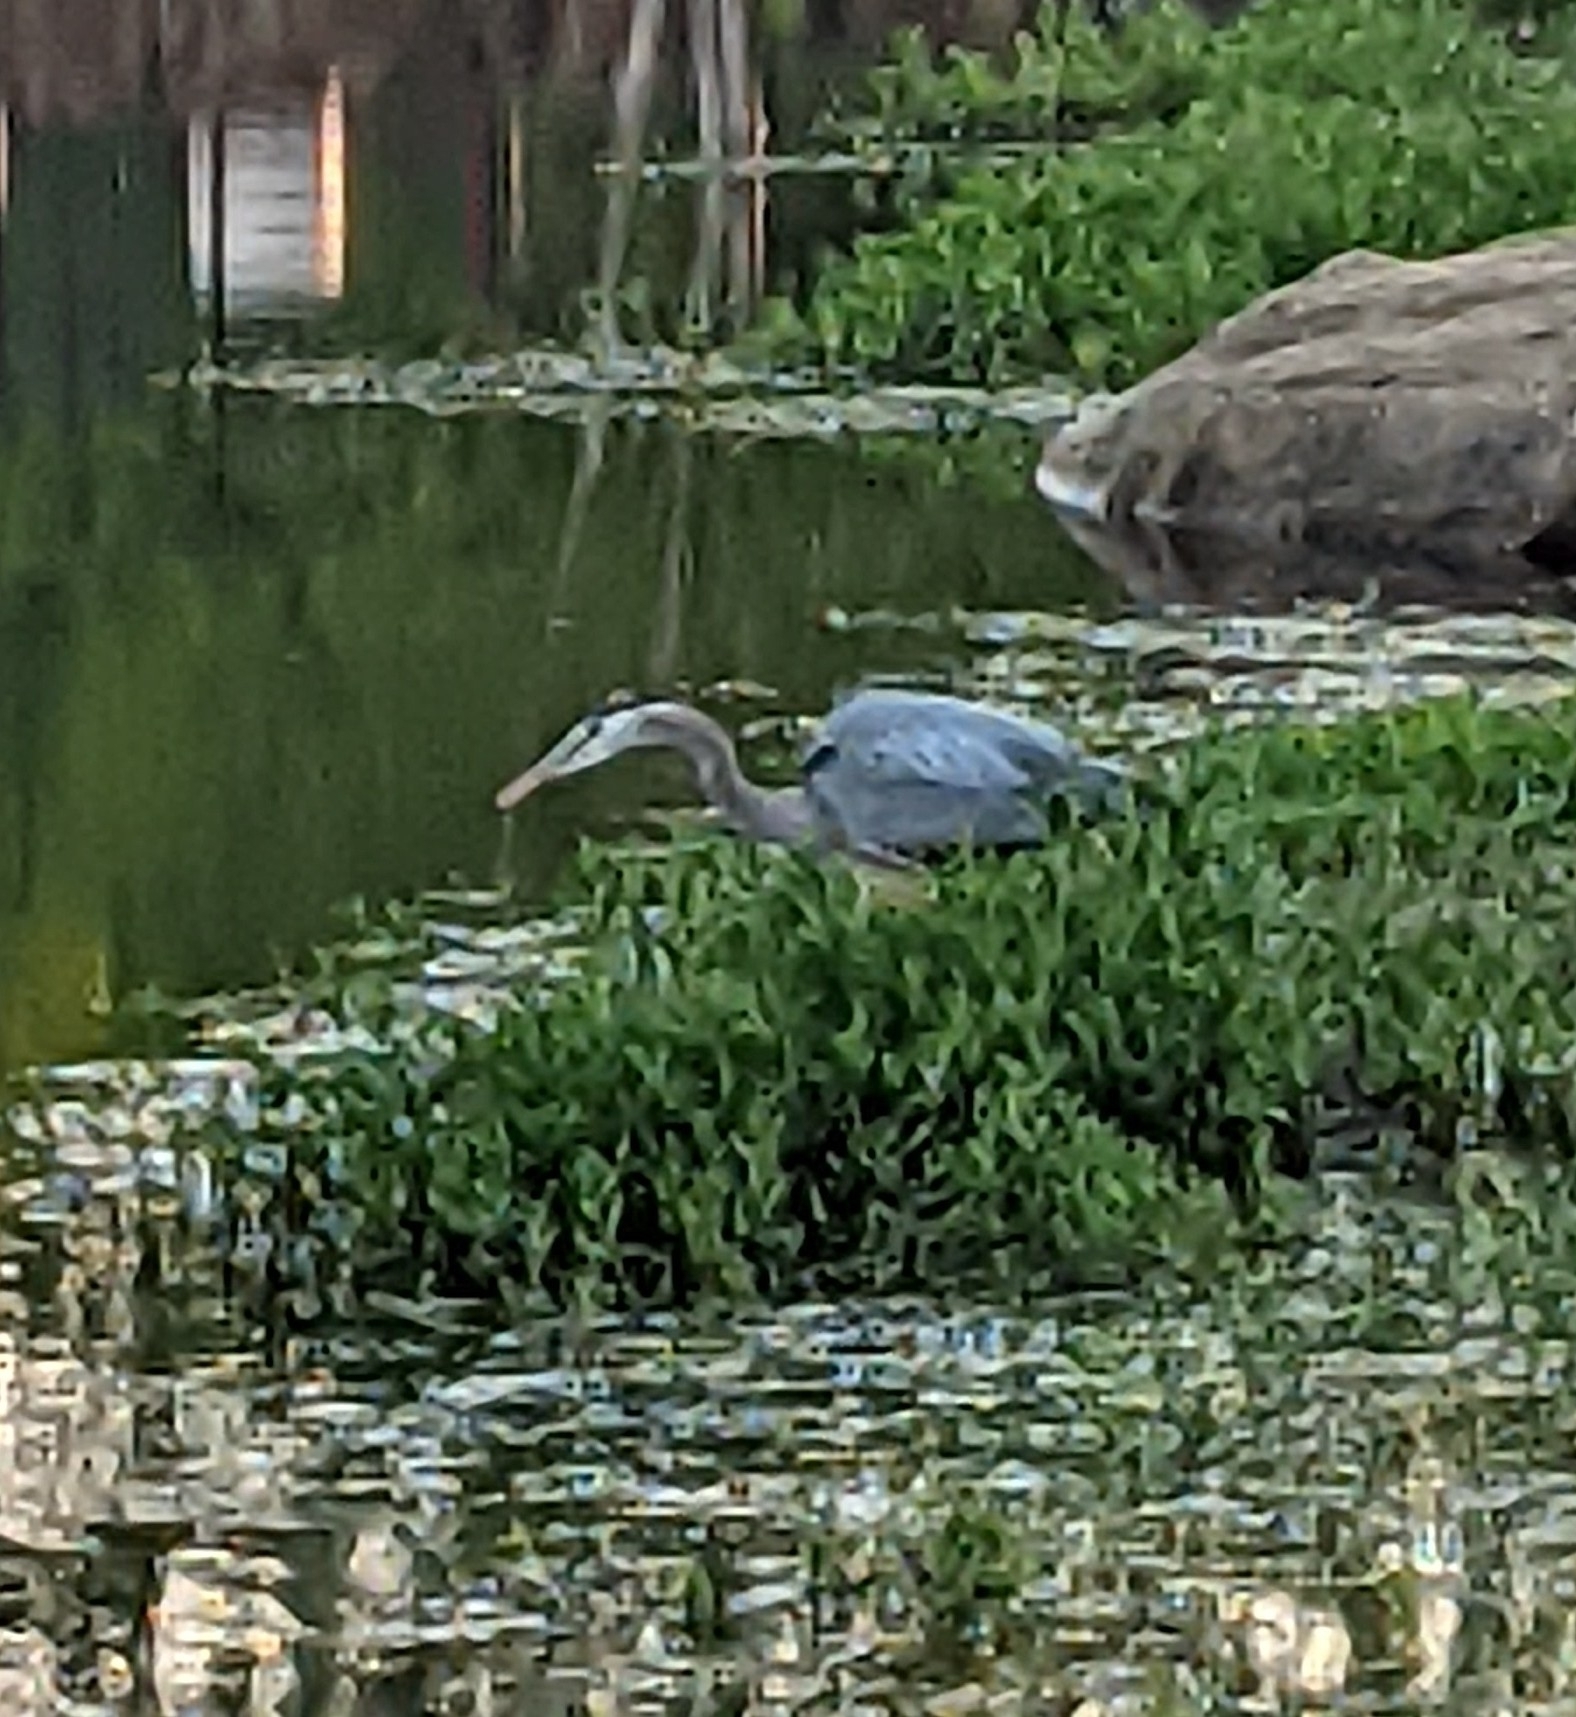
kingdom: Animalia
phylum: Chordata
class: Aves
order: Pelecaniformes
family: Ardeidae
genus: Ardea
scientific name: Ardea herodias
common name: Great blue heron
